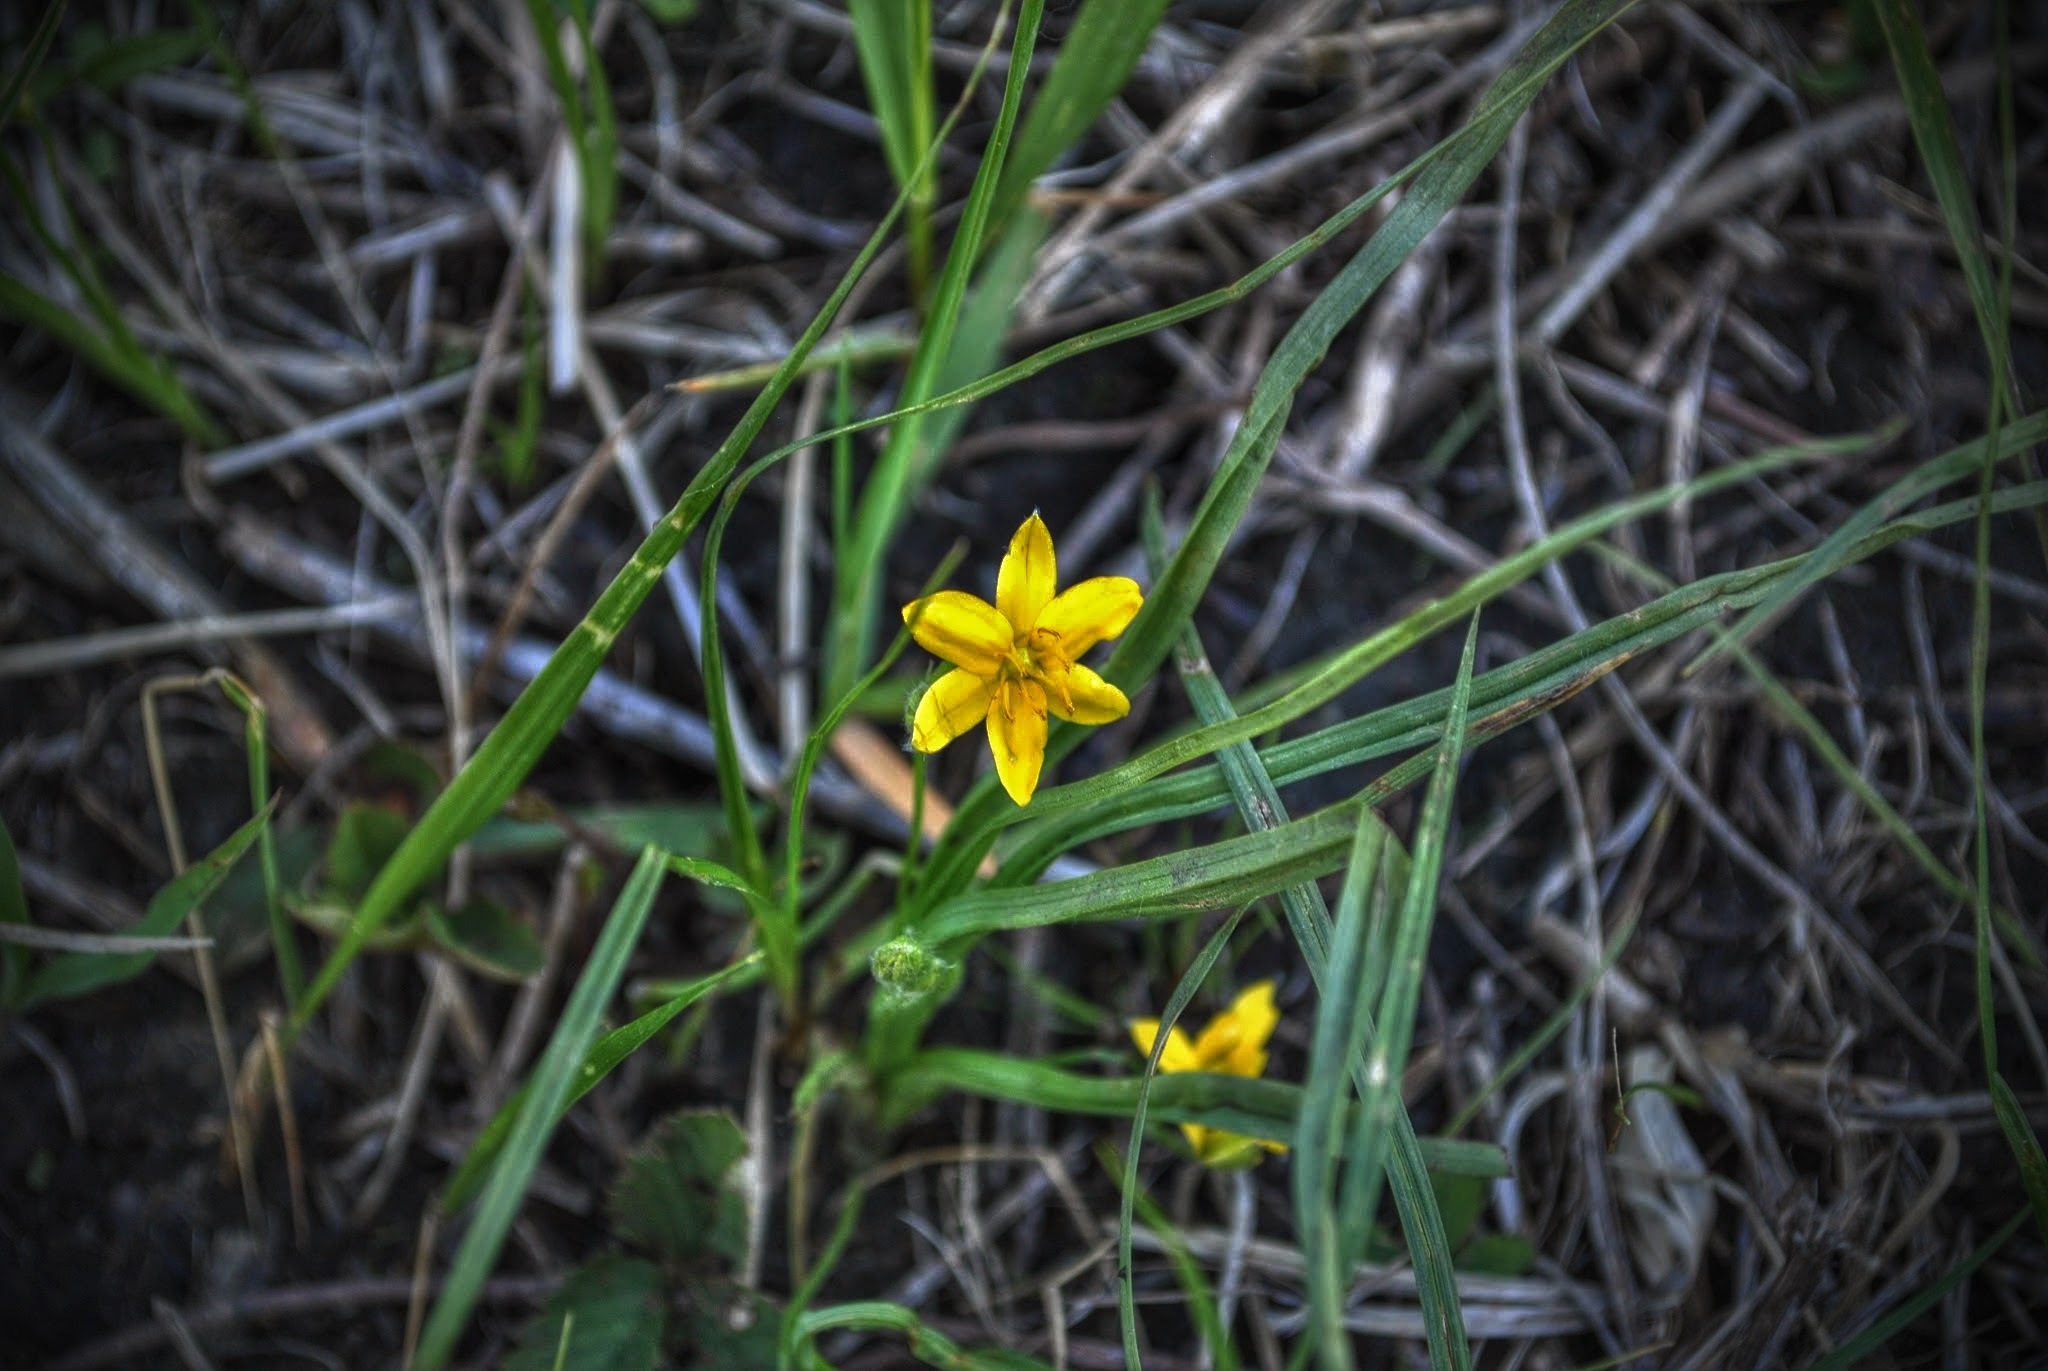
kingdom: Plantae
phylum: Tracheophyta
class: Liliopsida
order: Asparagales
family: Hypoxidaceae
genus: Hypoxis
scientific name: Hypoxis hirsuta
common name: Common goldstar
